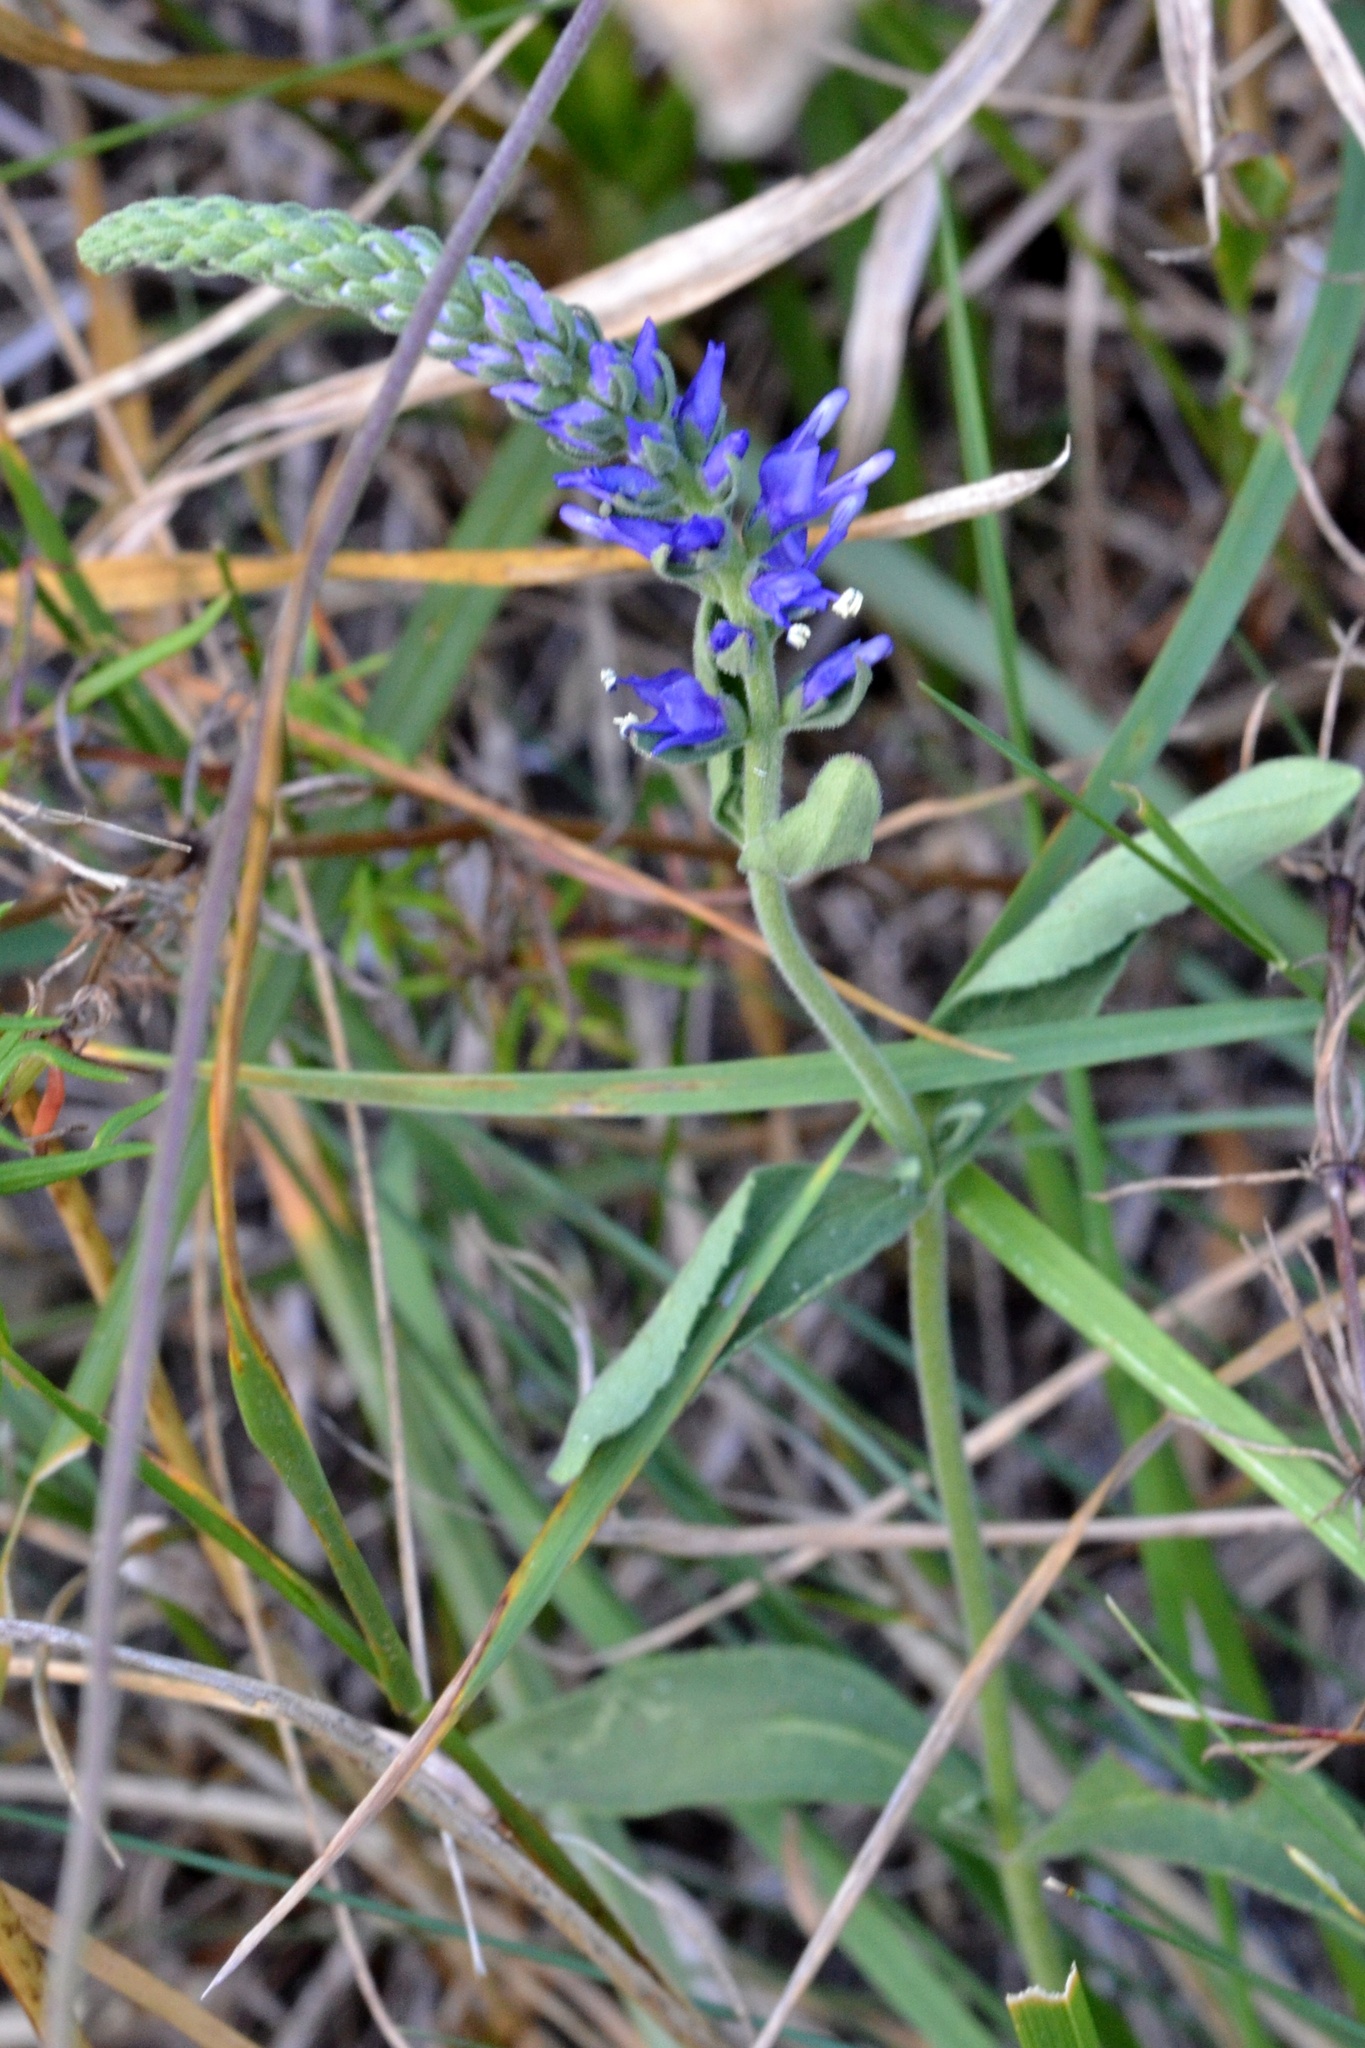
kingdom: Plantae
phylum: Tracheophyta
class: Magnoliopsida
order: Lamiales
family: Plantaginaceae
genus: Veronica
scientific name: Veronica spicata
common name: Spiked speedwell
